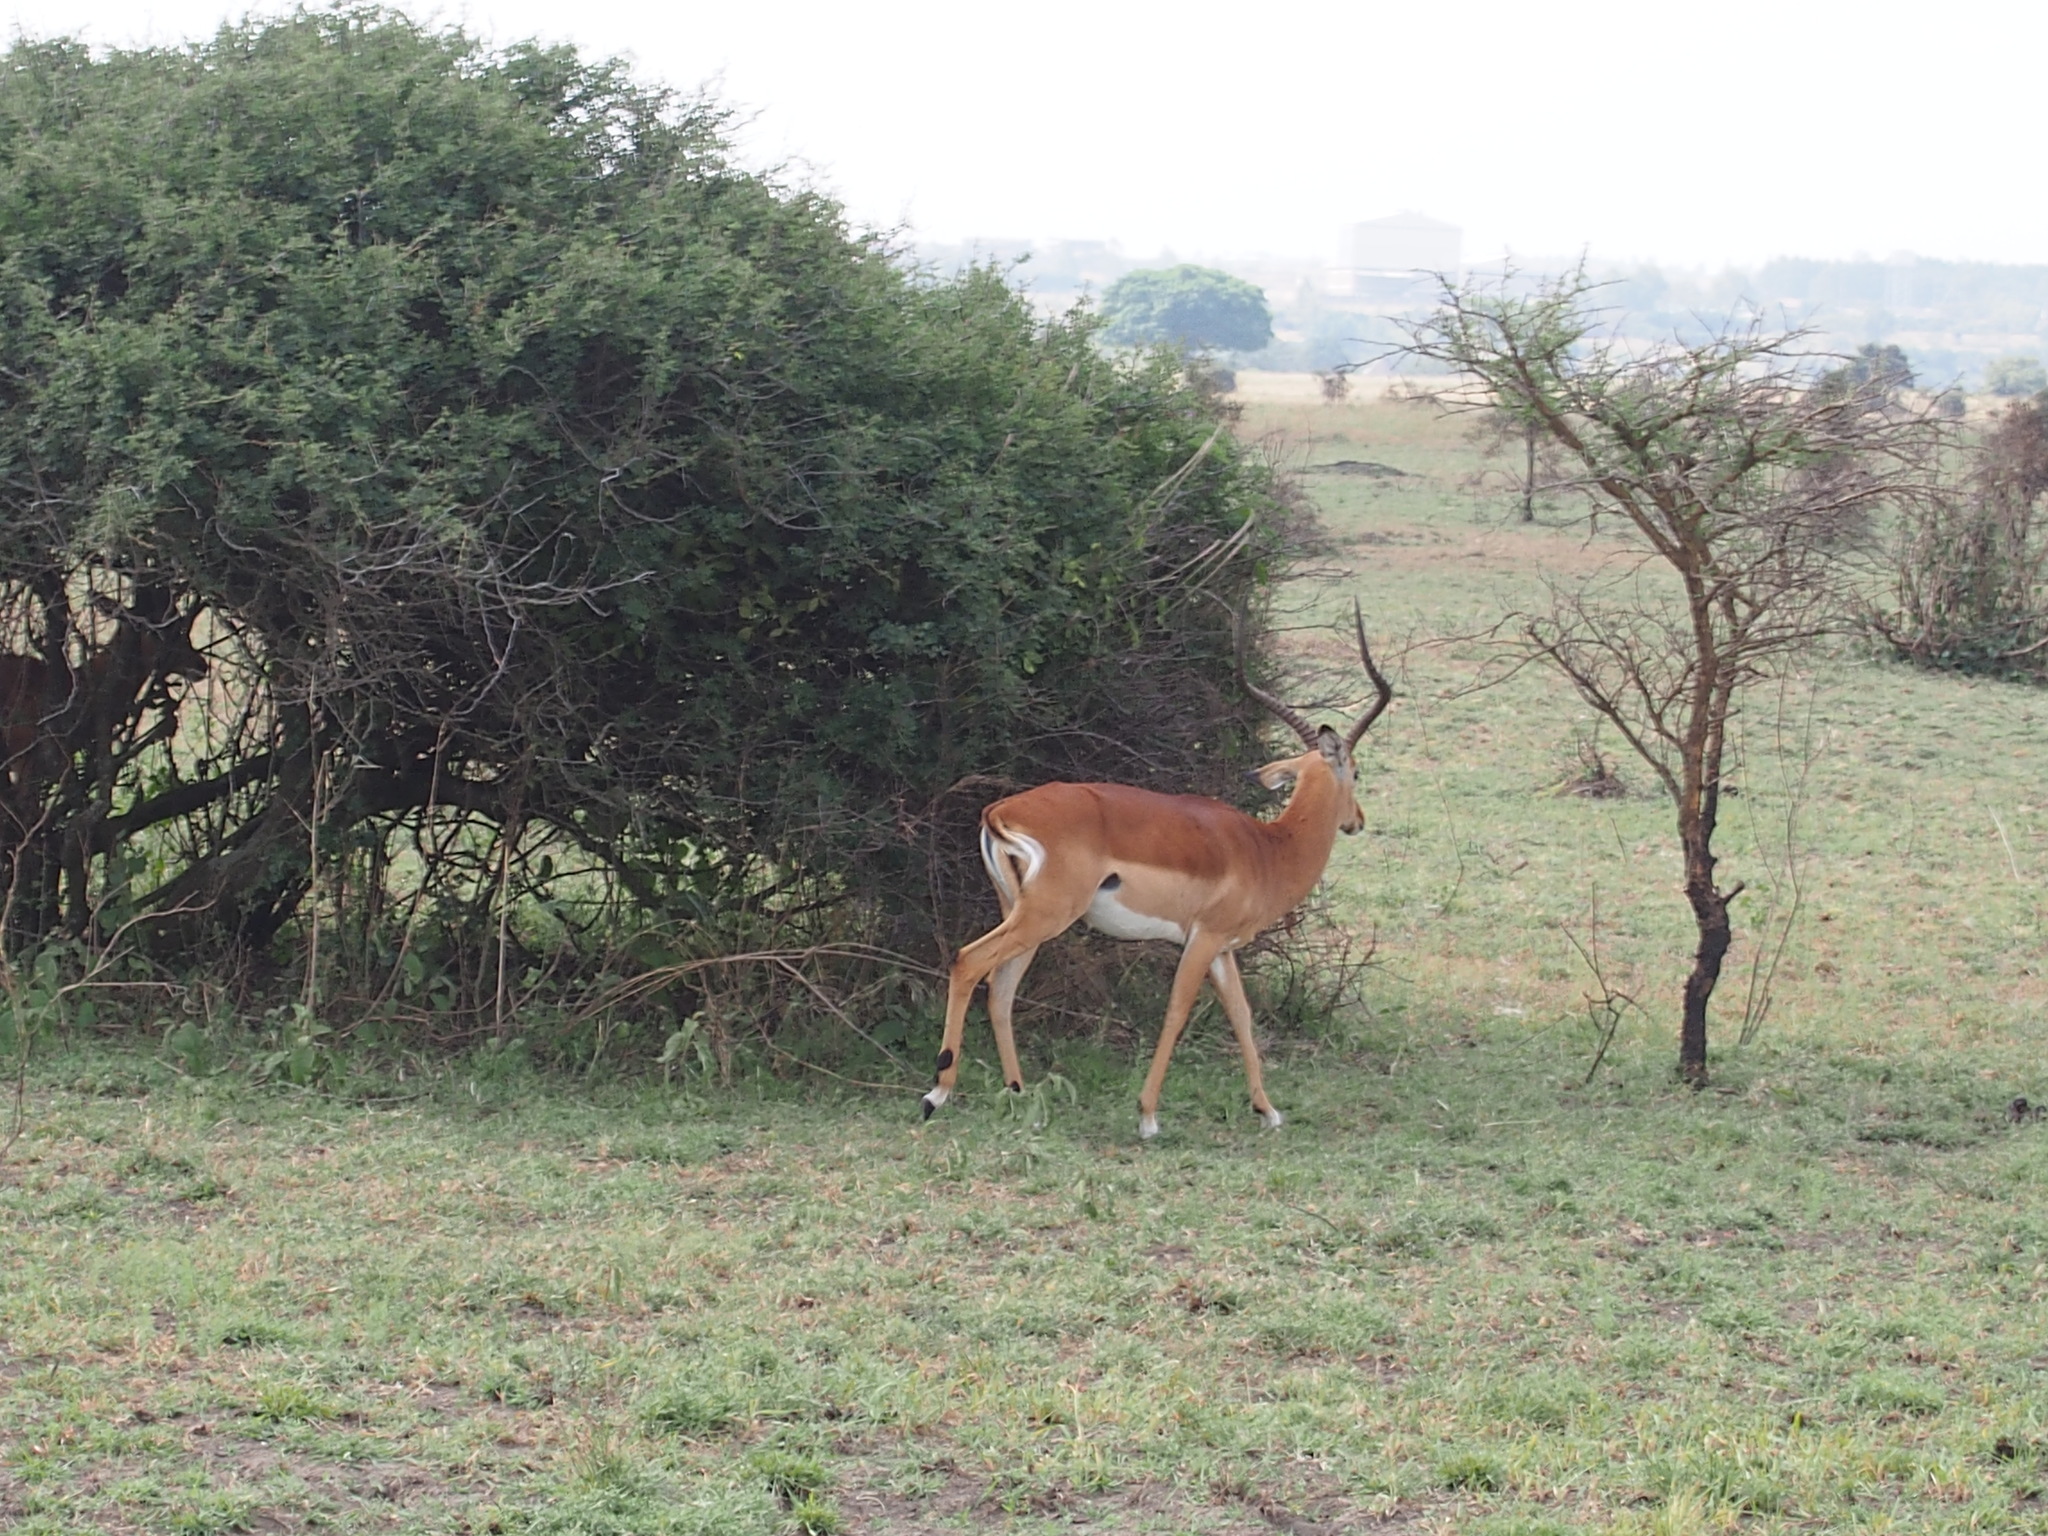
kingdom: Animalia
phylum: Chordata
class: Mammalia
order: Artiodactyla
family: Bovidae
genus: Aepyceros
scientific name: Aepyceros melampus
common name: Impala
